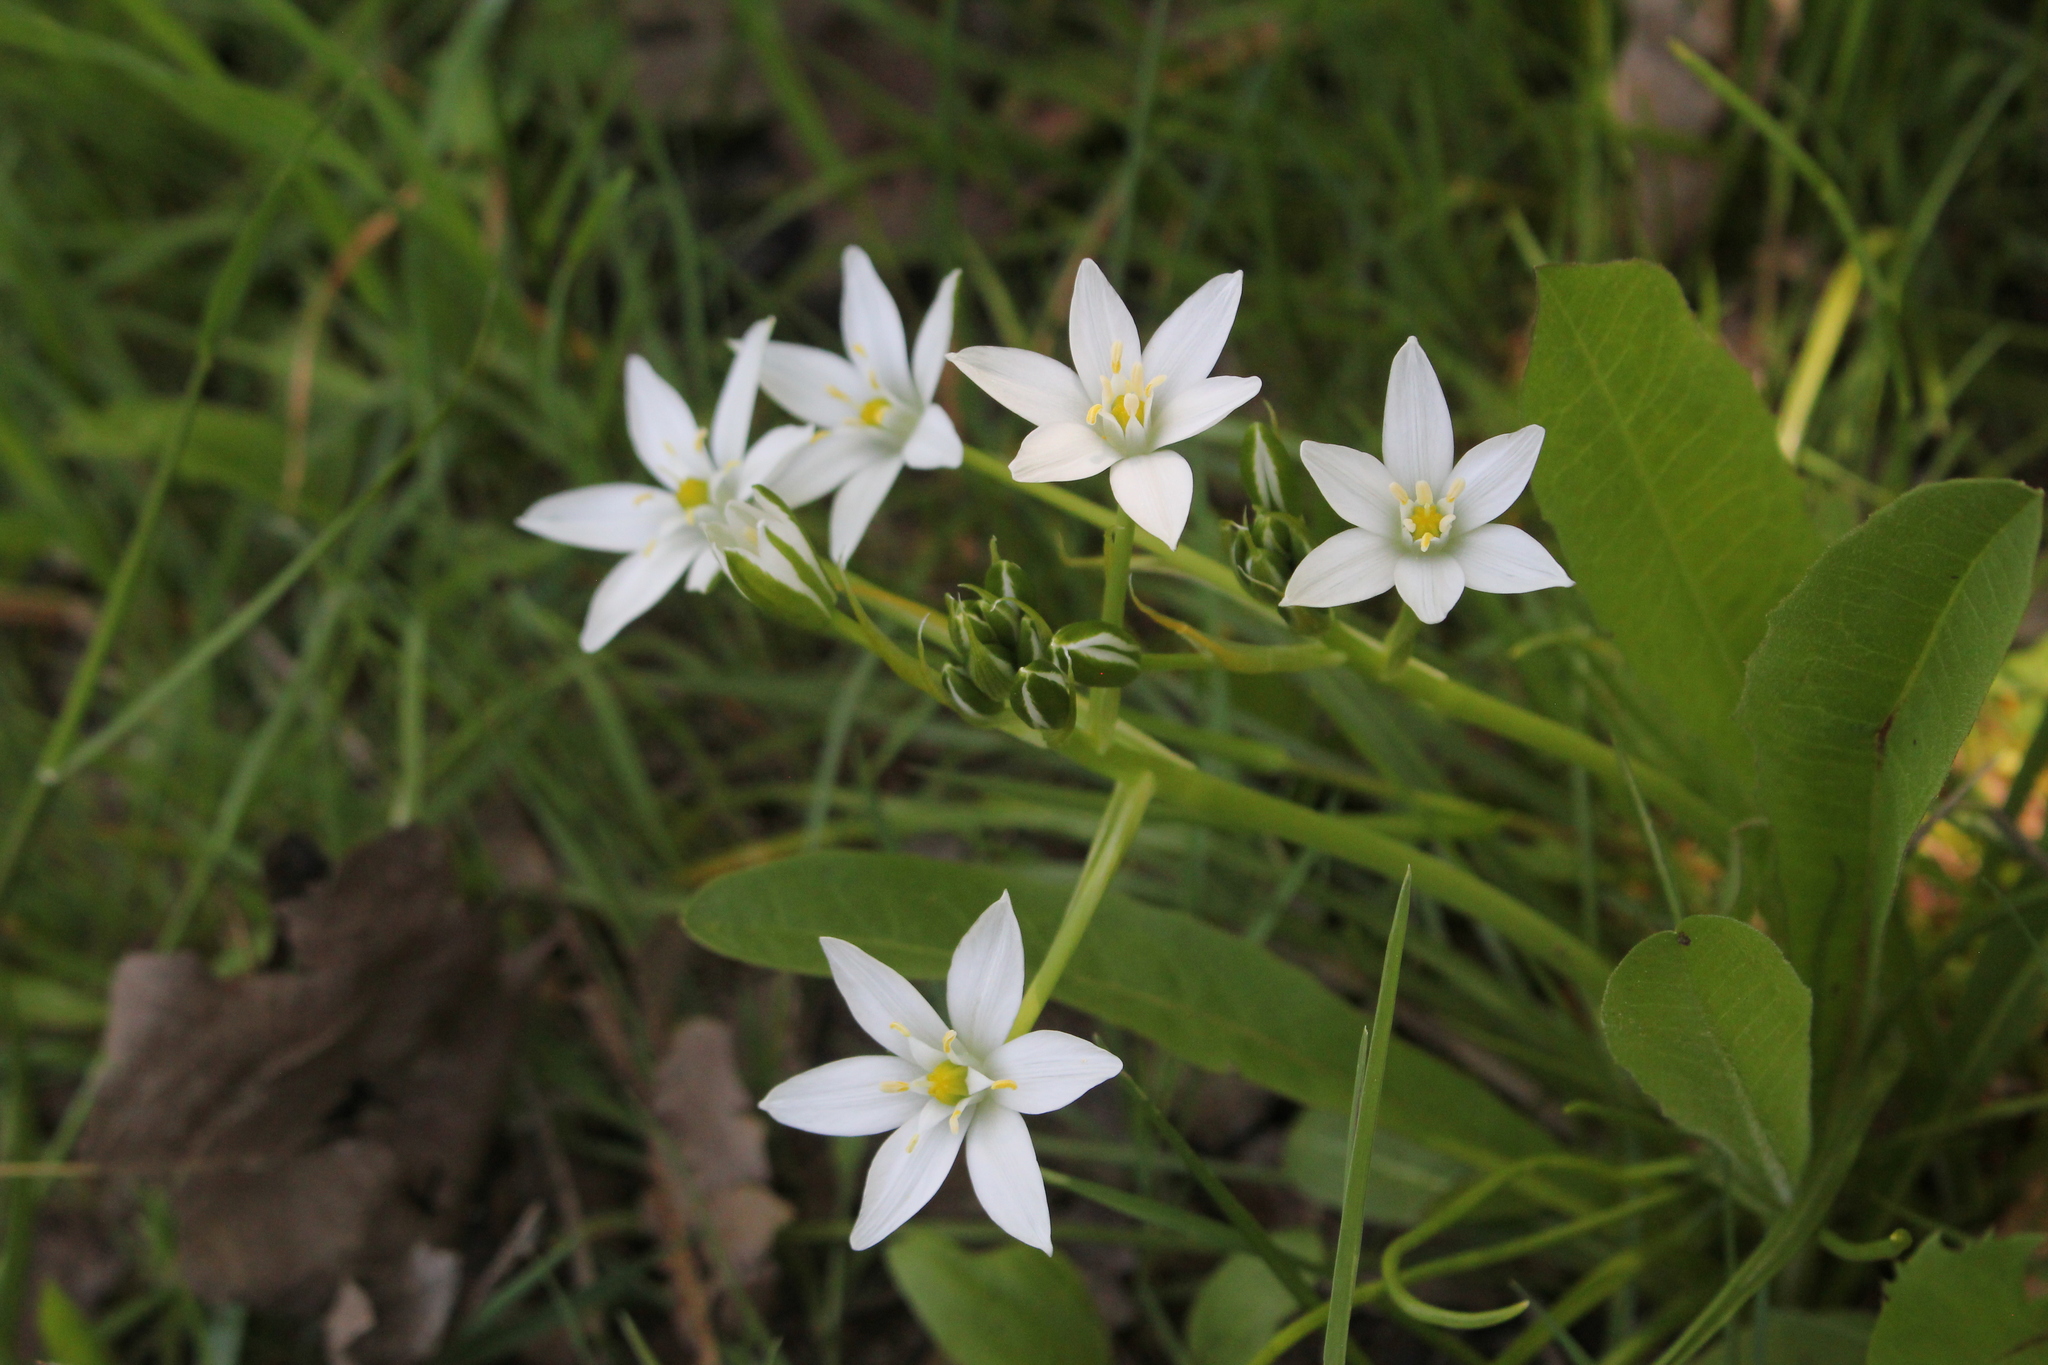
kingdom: Plantae
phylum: Tracheophyta
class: Liliopsida
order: Asparagales
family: Asparagaceae
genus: Ornithogalum
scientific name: Ornithogalum umbellatum
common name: Garden star-of-bethlehem
